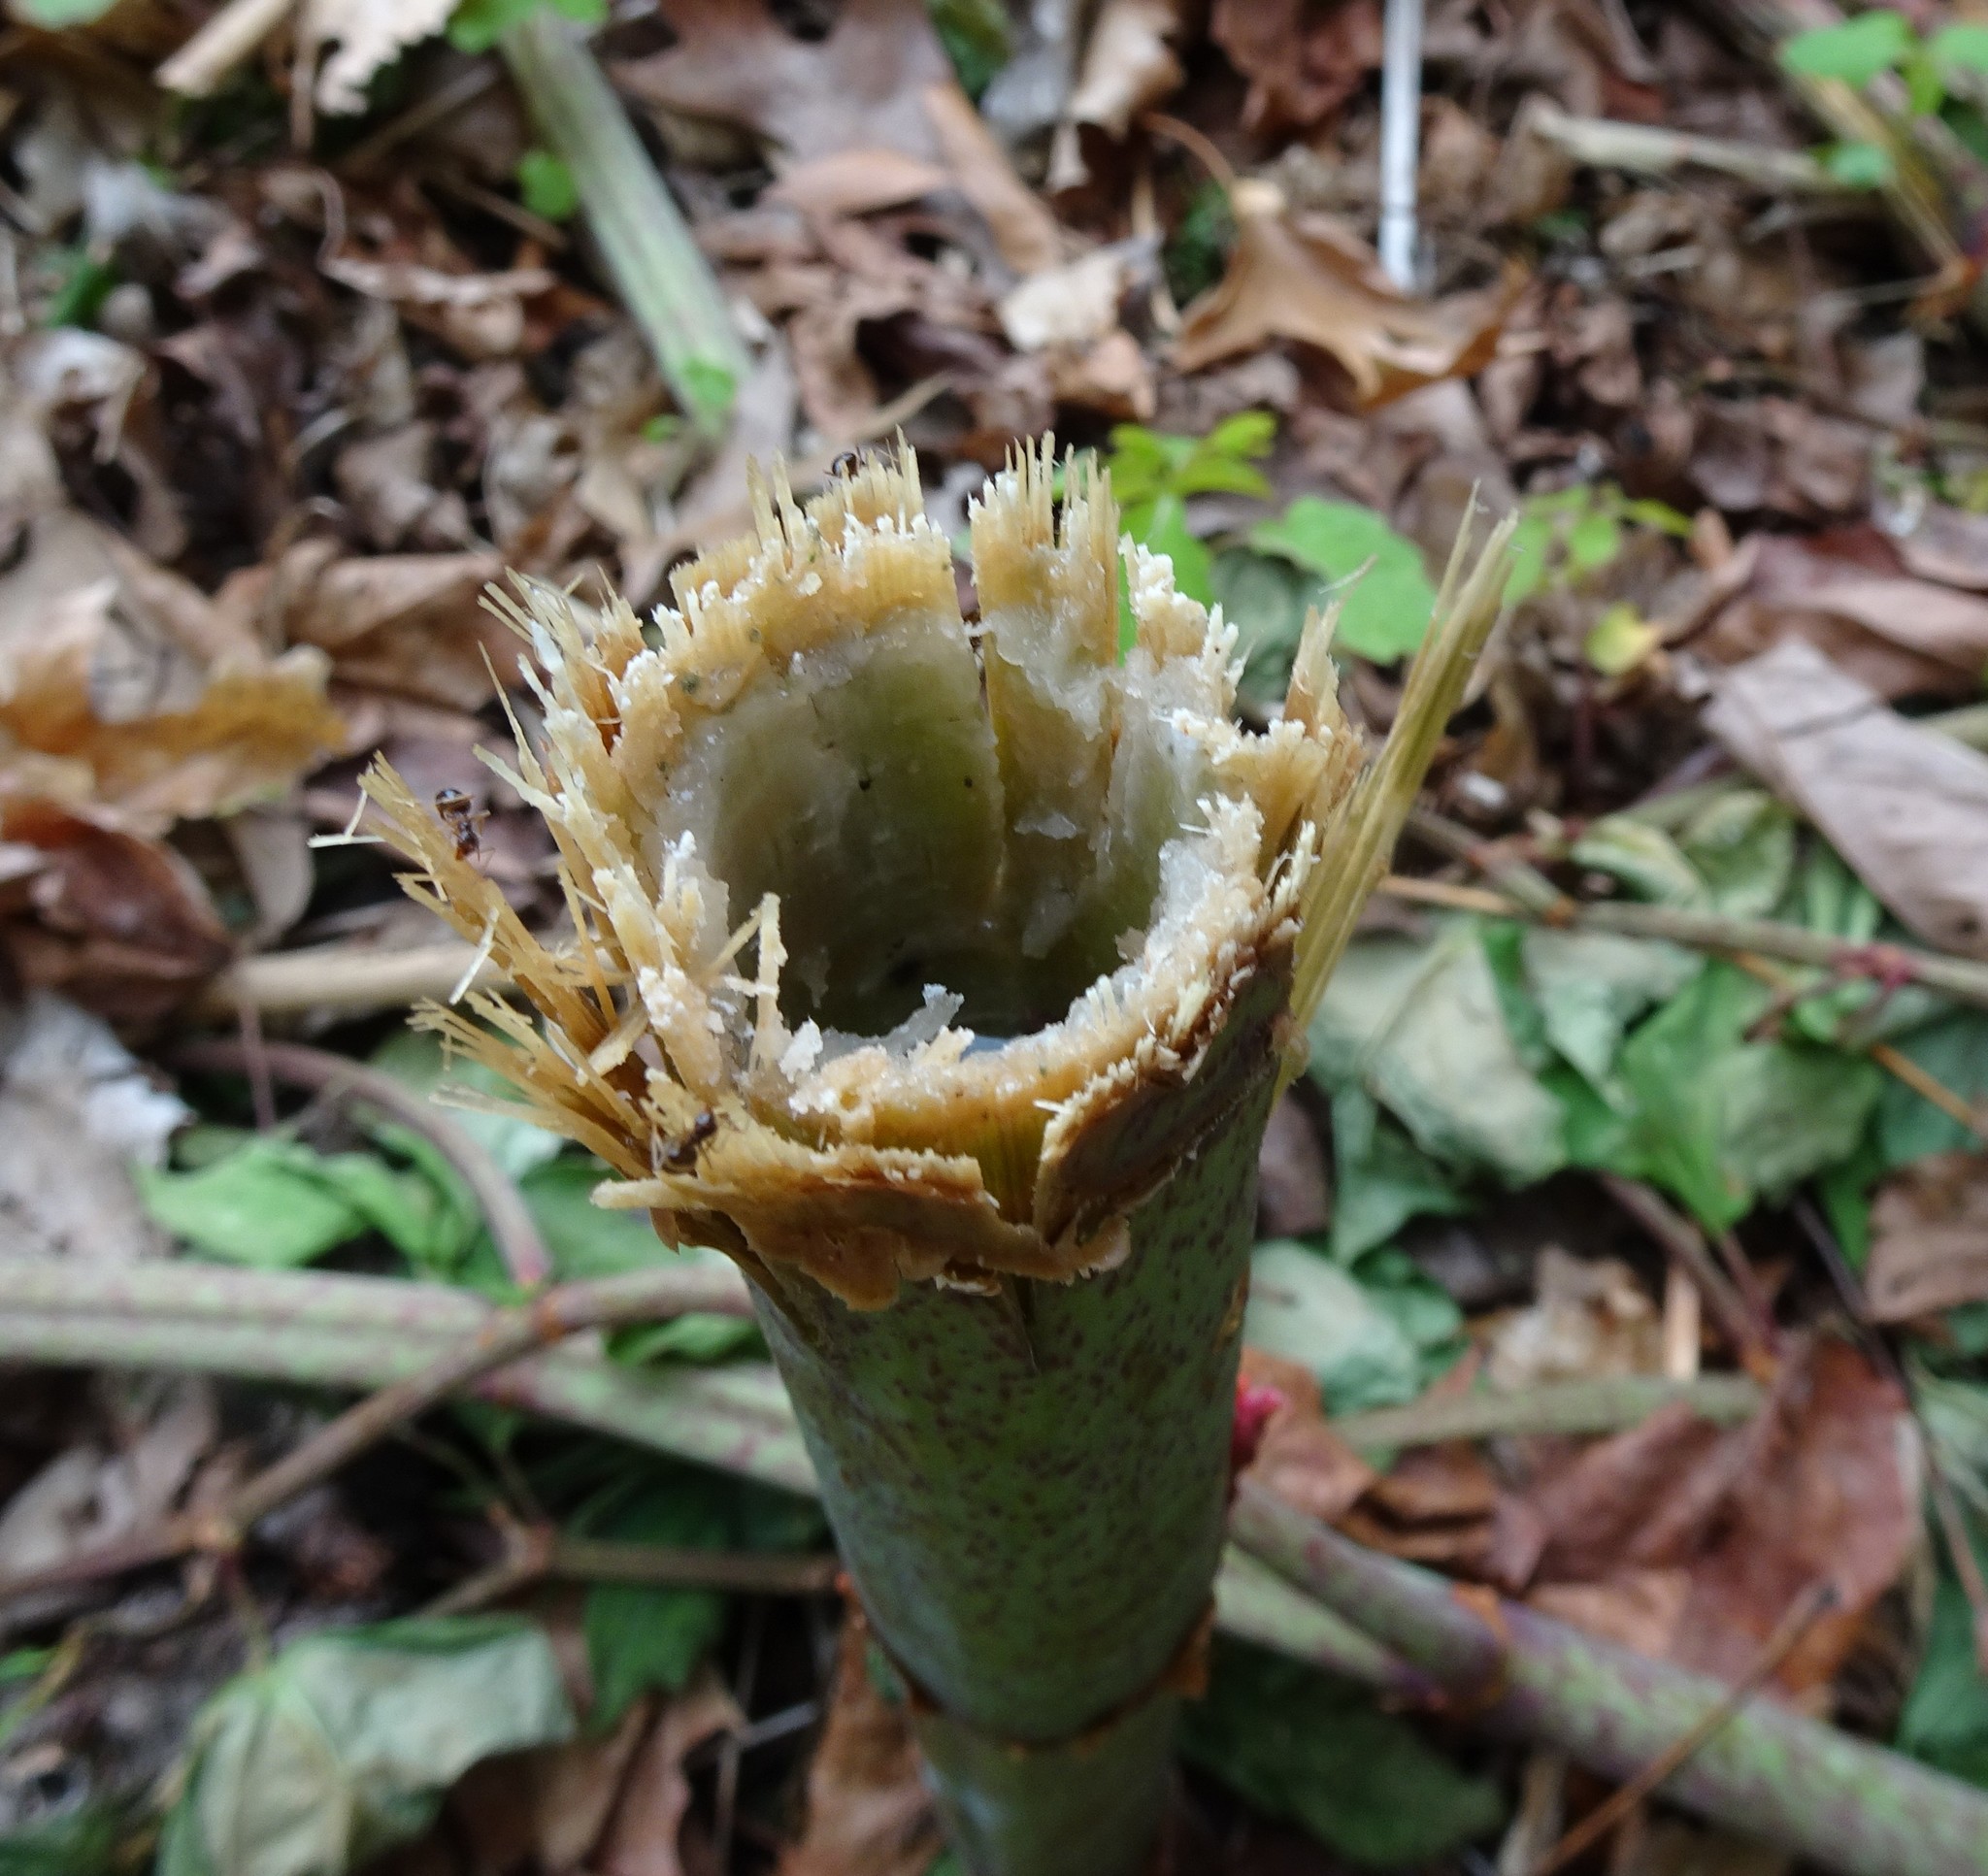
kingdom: Plantae
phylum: Tracheophyta
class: Magnoliopsida
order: Caryophyllales
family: Polygonaceae
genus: Reynoutria
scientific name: Reynoutria japonica
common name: Japanese knotweed
